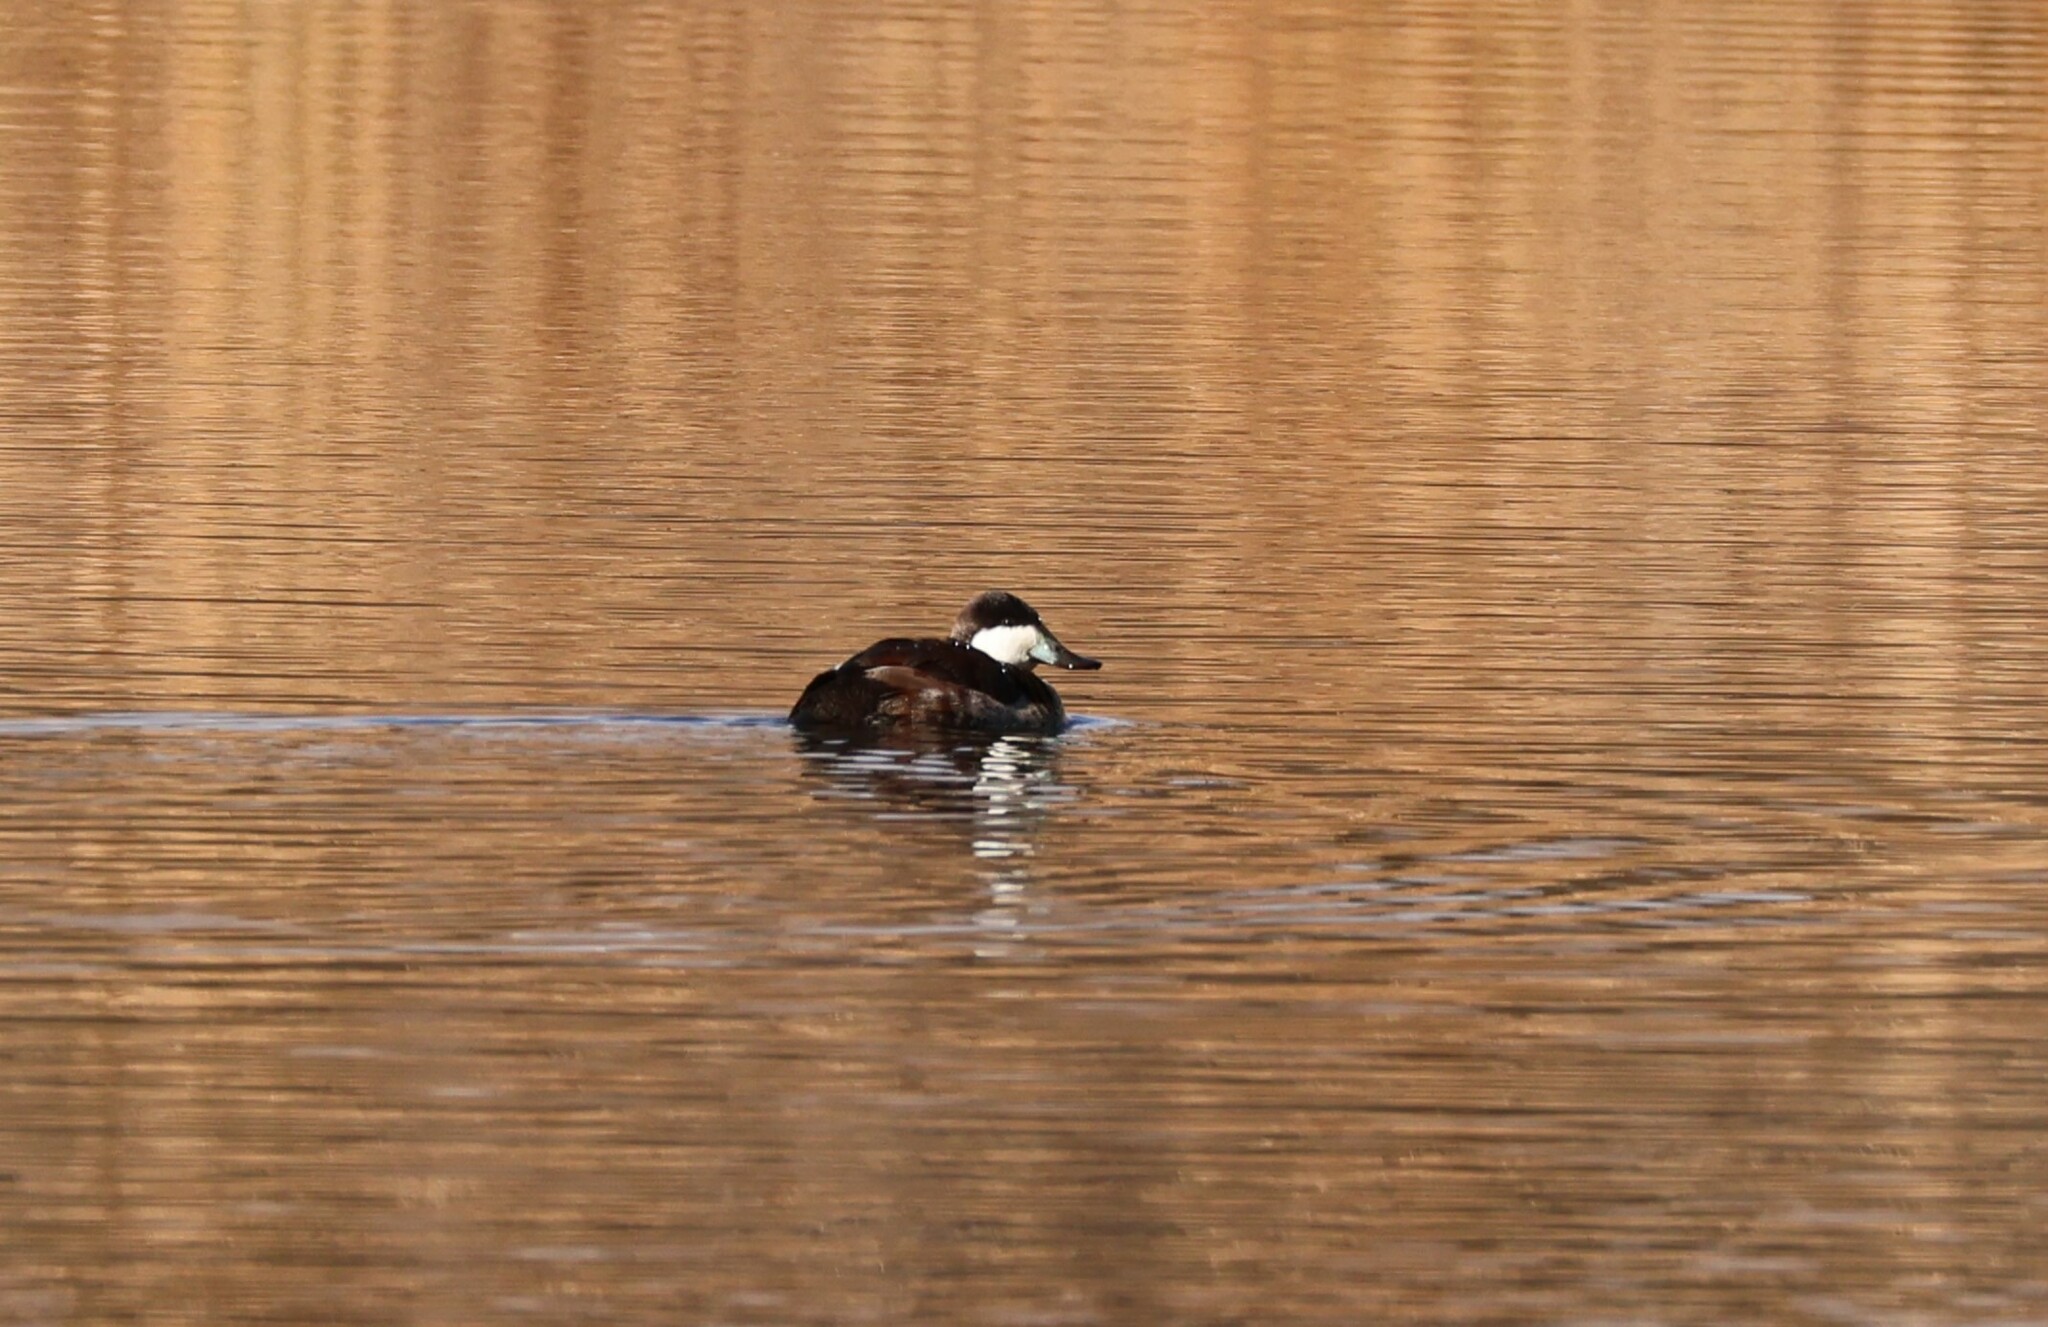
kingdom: Animalia
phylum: Chordata
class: Aves
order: Anseriformes
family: Anatidae
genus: Oxyura
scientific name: Oxyura jamaicensis
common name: Ruddy duck
